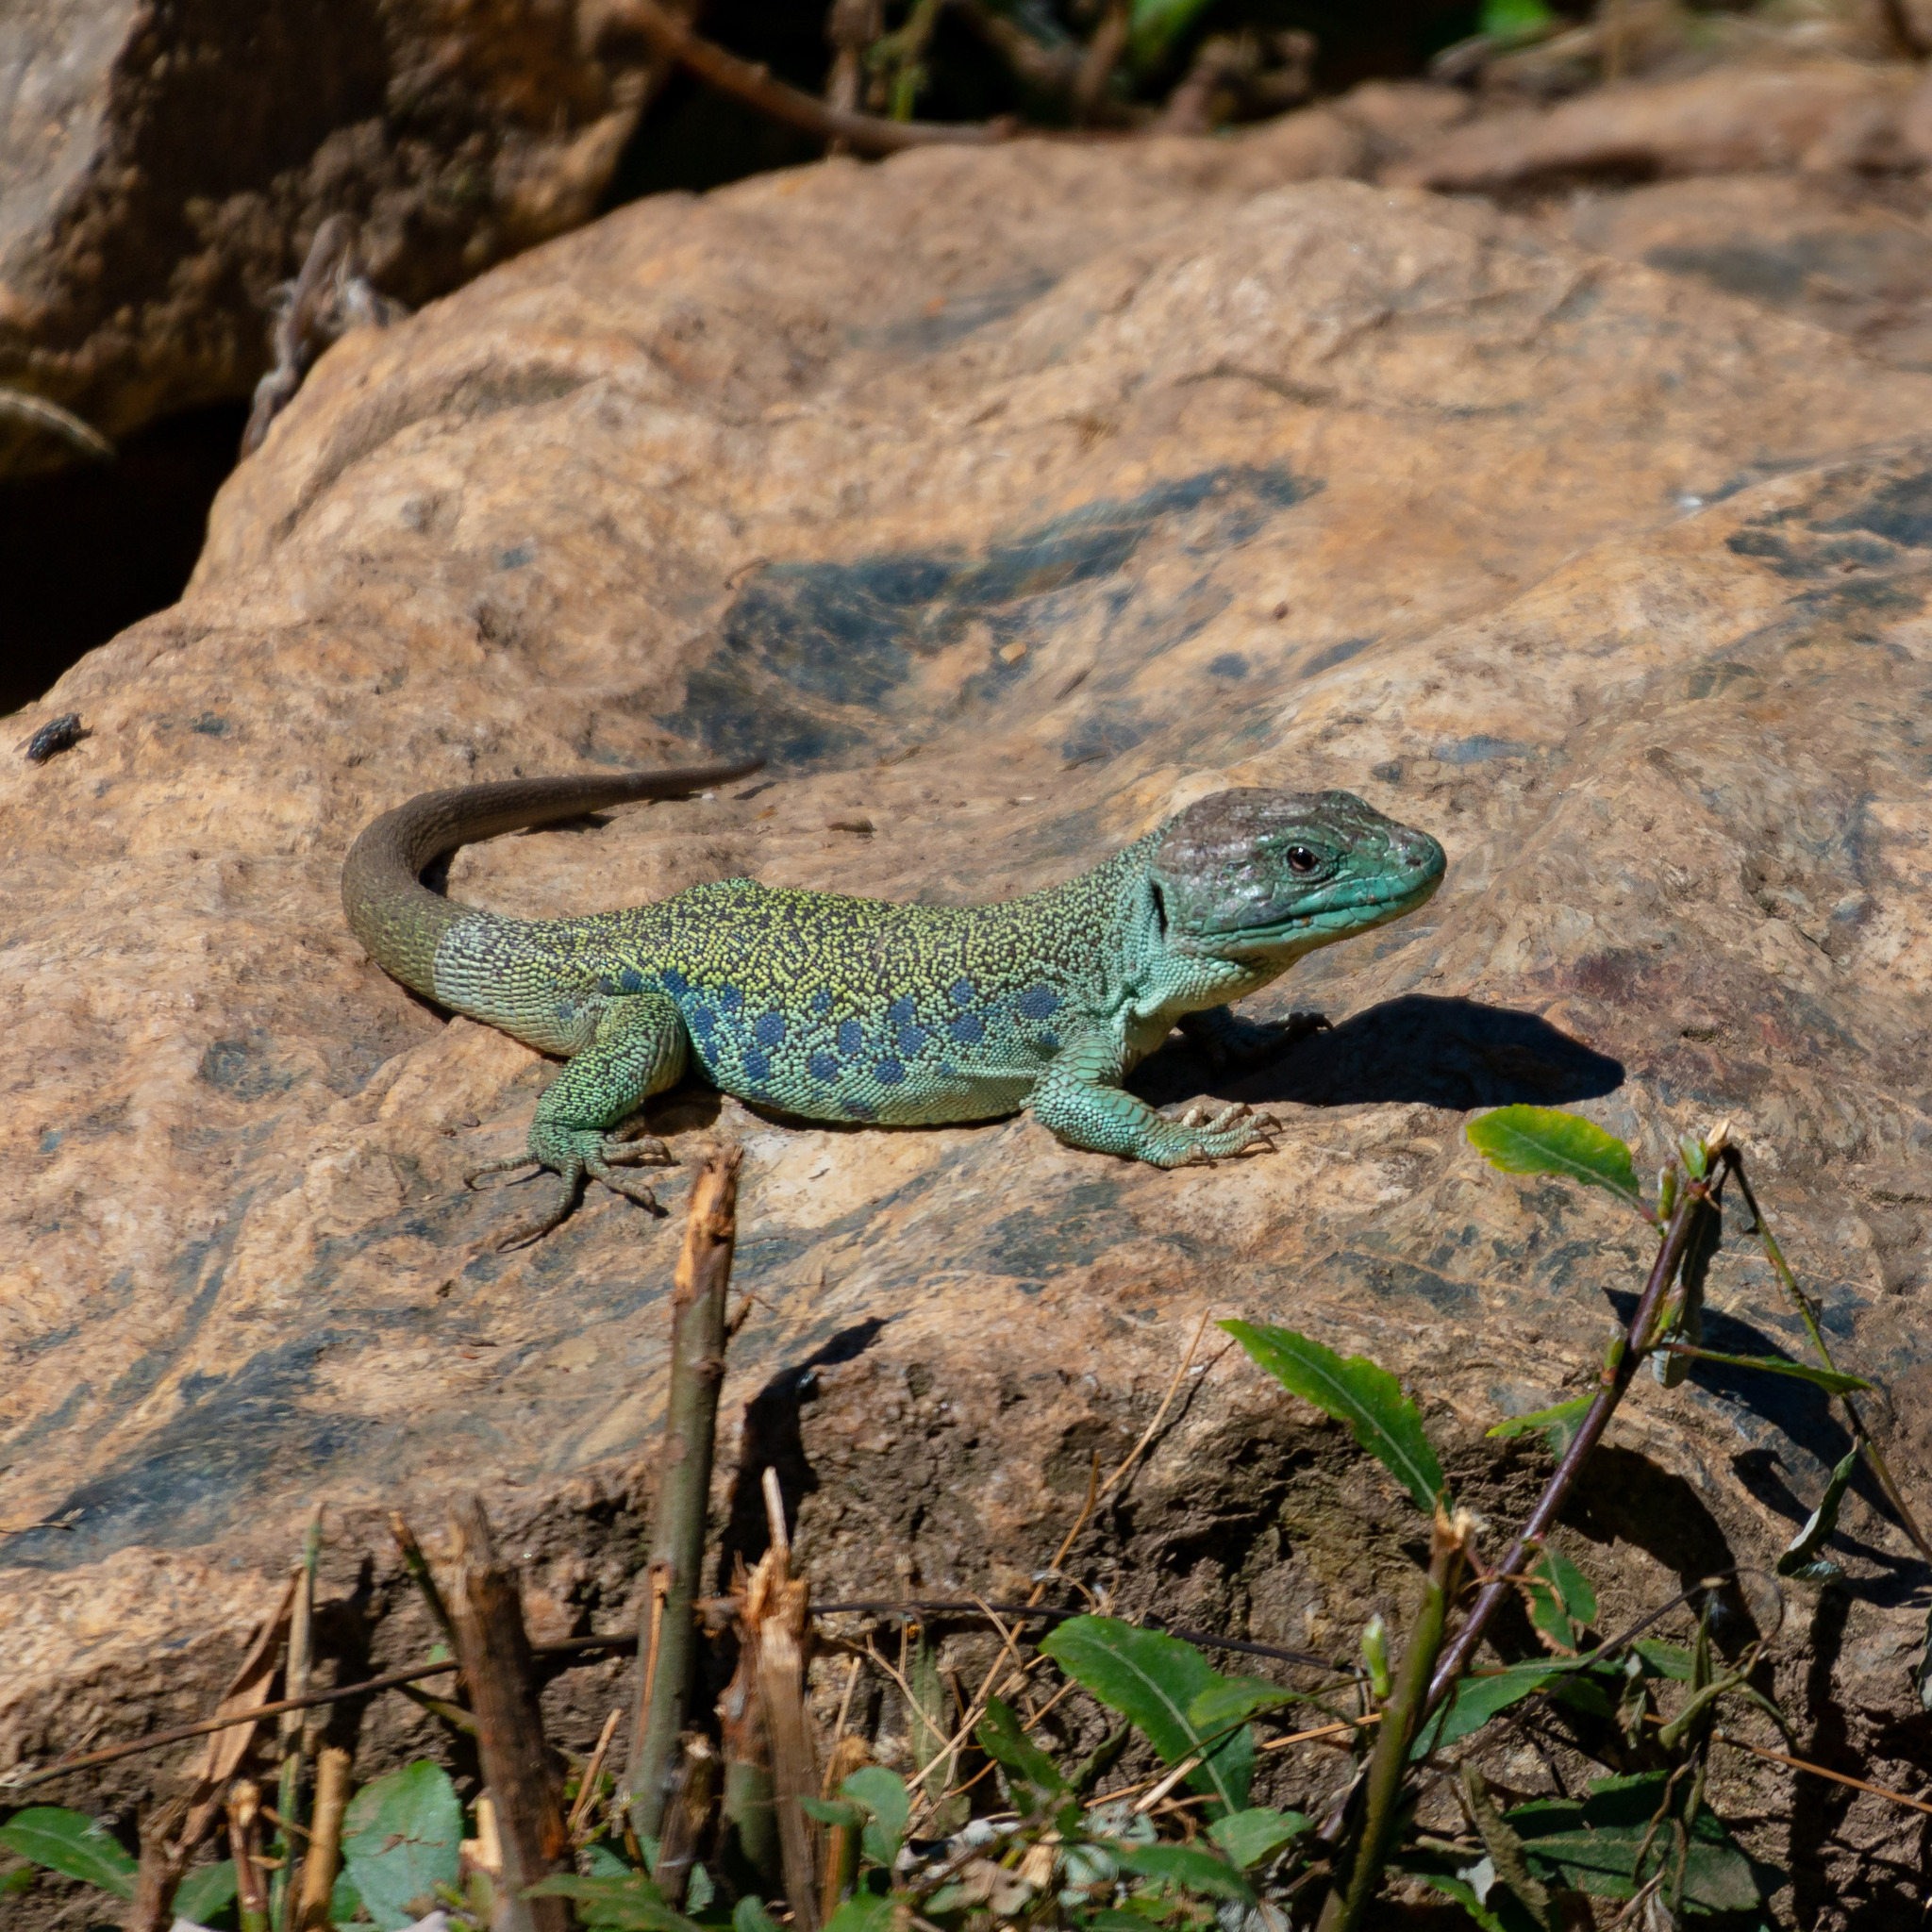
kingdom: Animalia
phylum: Chordata
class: Squamata
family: Lacertidae
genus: Timon
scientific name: Timon lepidus
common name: Ocellated lizard
